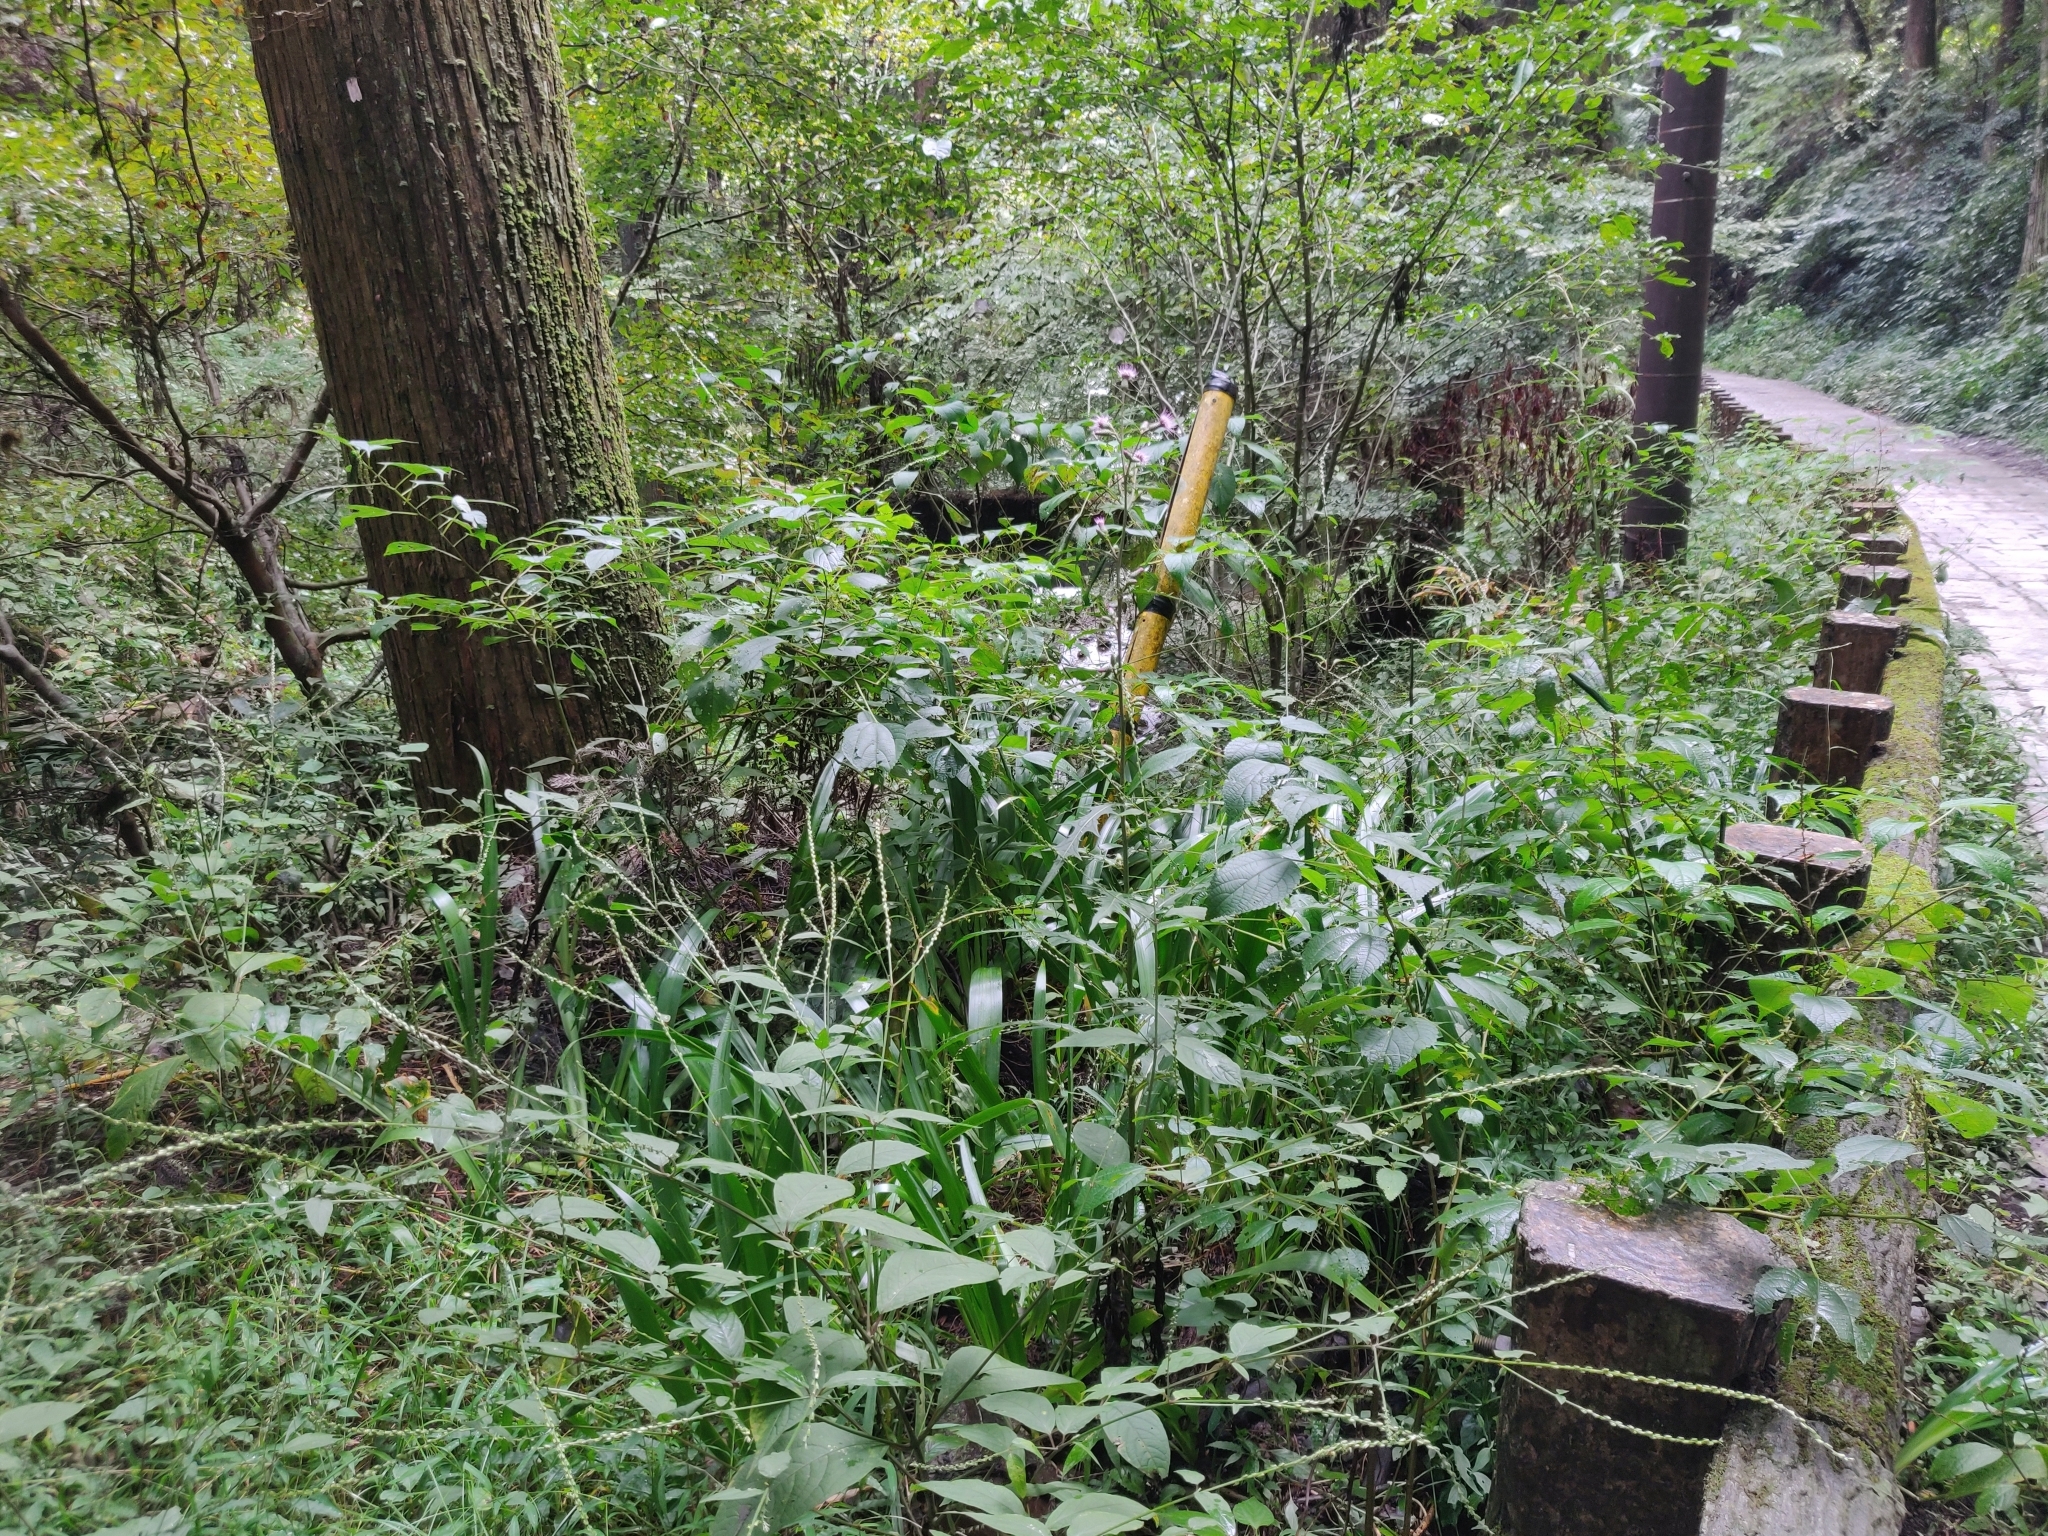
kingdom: Plantae
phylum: Tracheophyta
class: Magnoliopsida
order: Asterales
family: Asteraceae
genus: Cirsium
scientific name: Cirsium microspicatum
